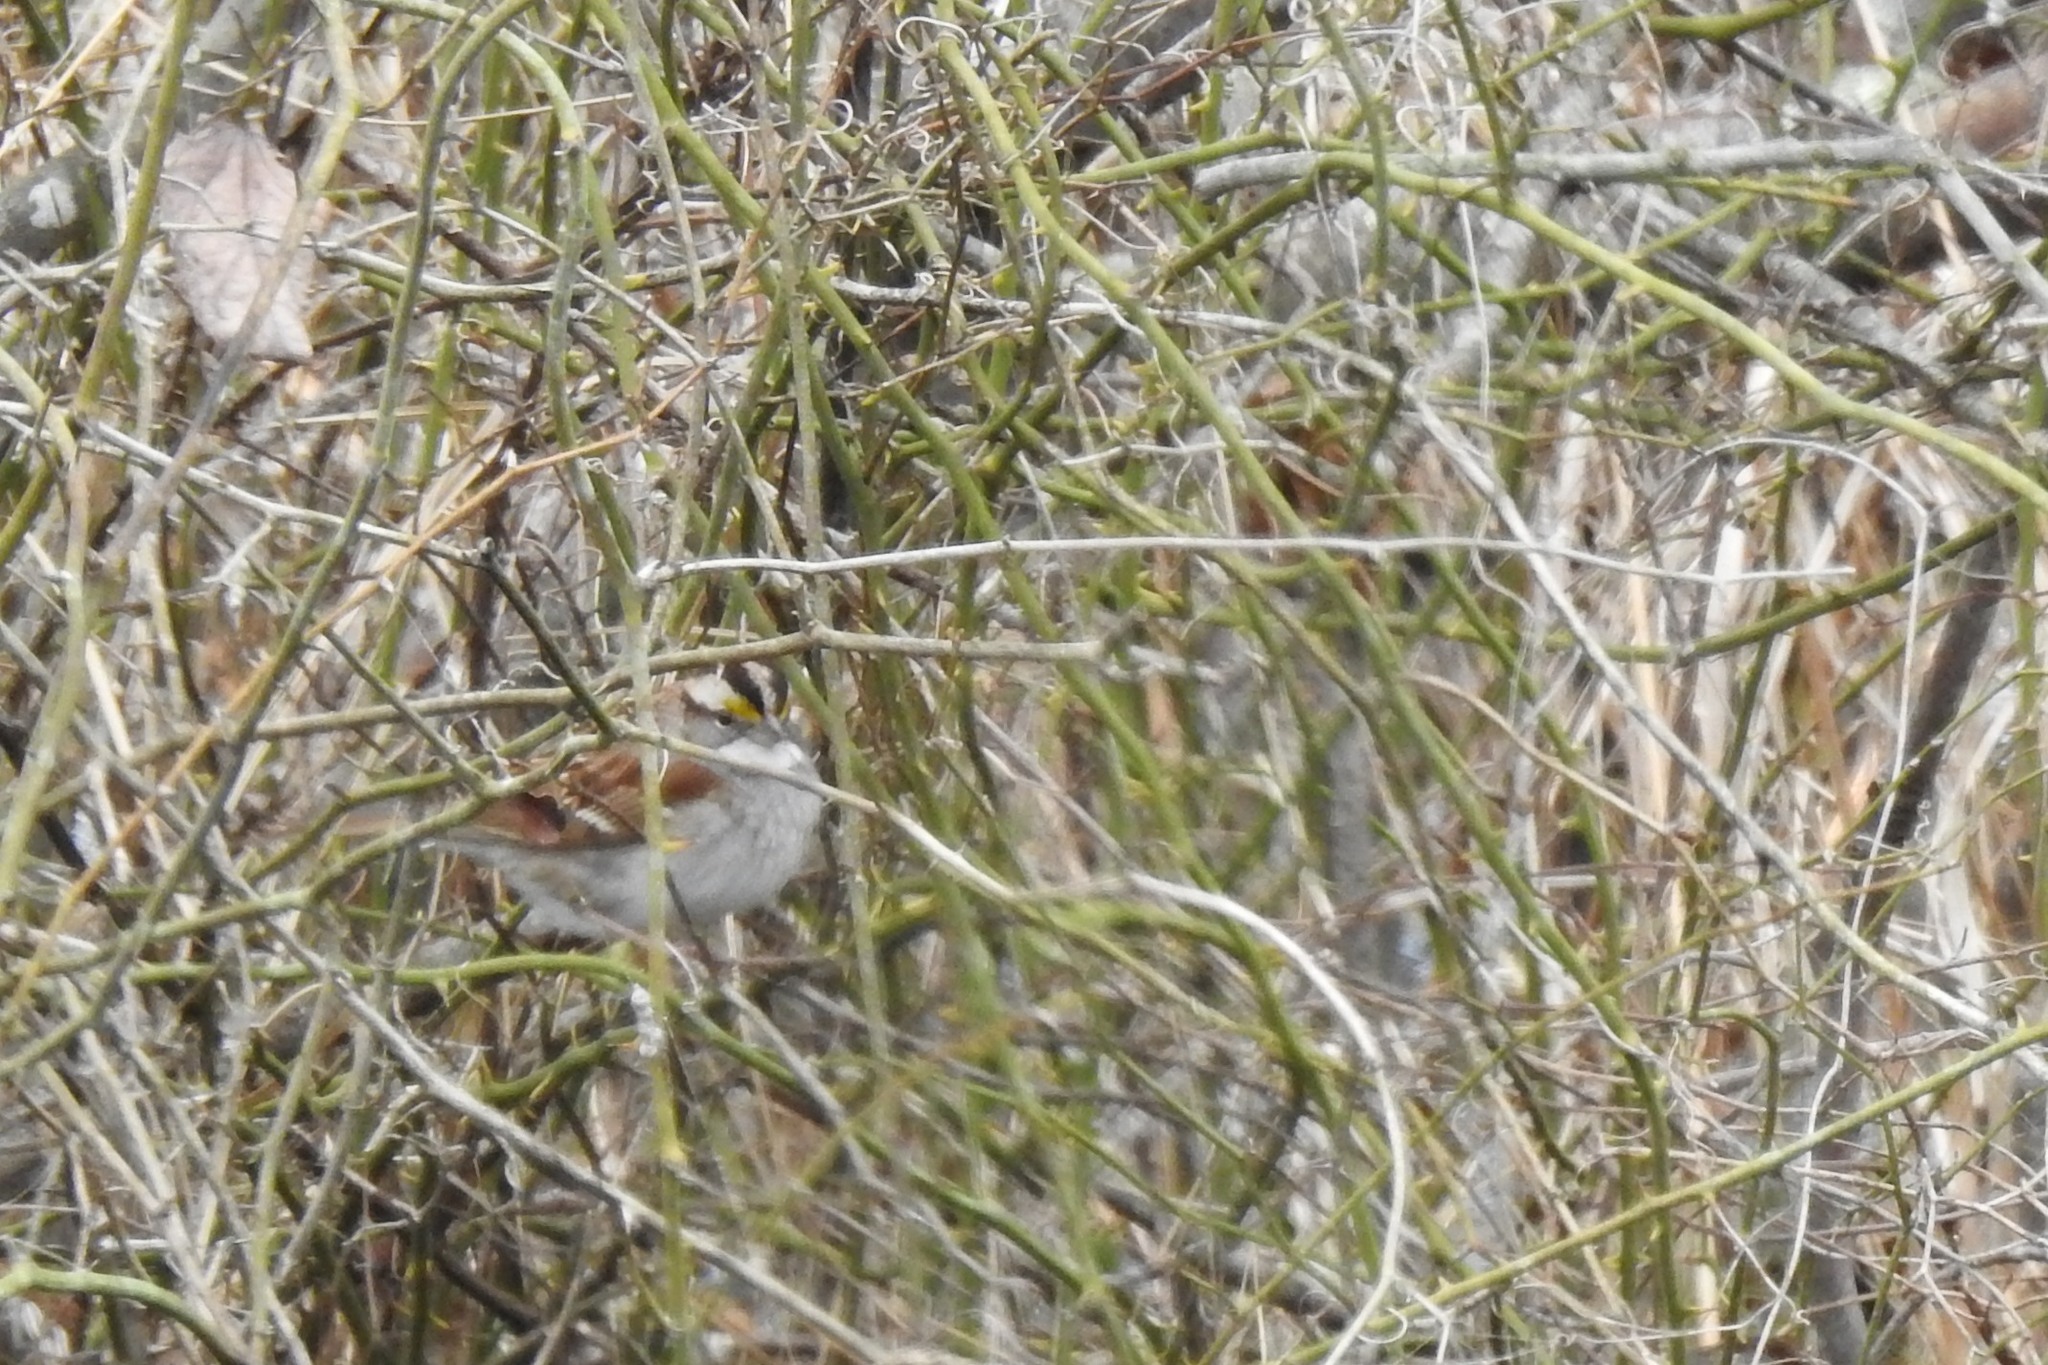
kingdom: Animalia
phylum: Chordata
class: Aves
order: Passeriformes
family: Passerellidae
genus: Zonotrichia
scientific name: Zonotrichia albicollis
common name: White-throated sparrow
